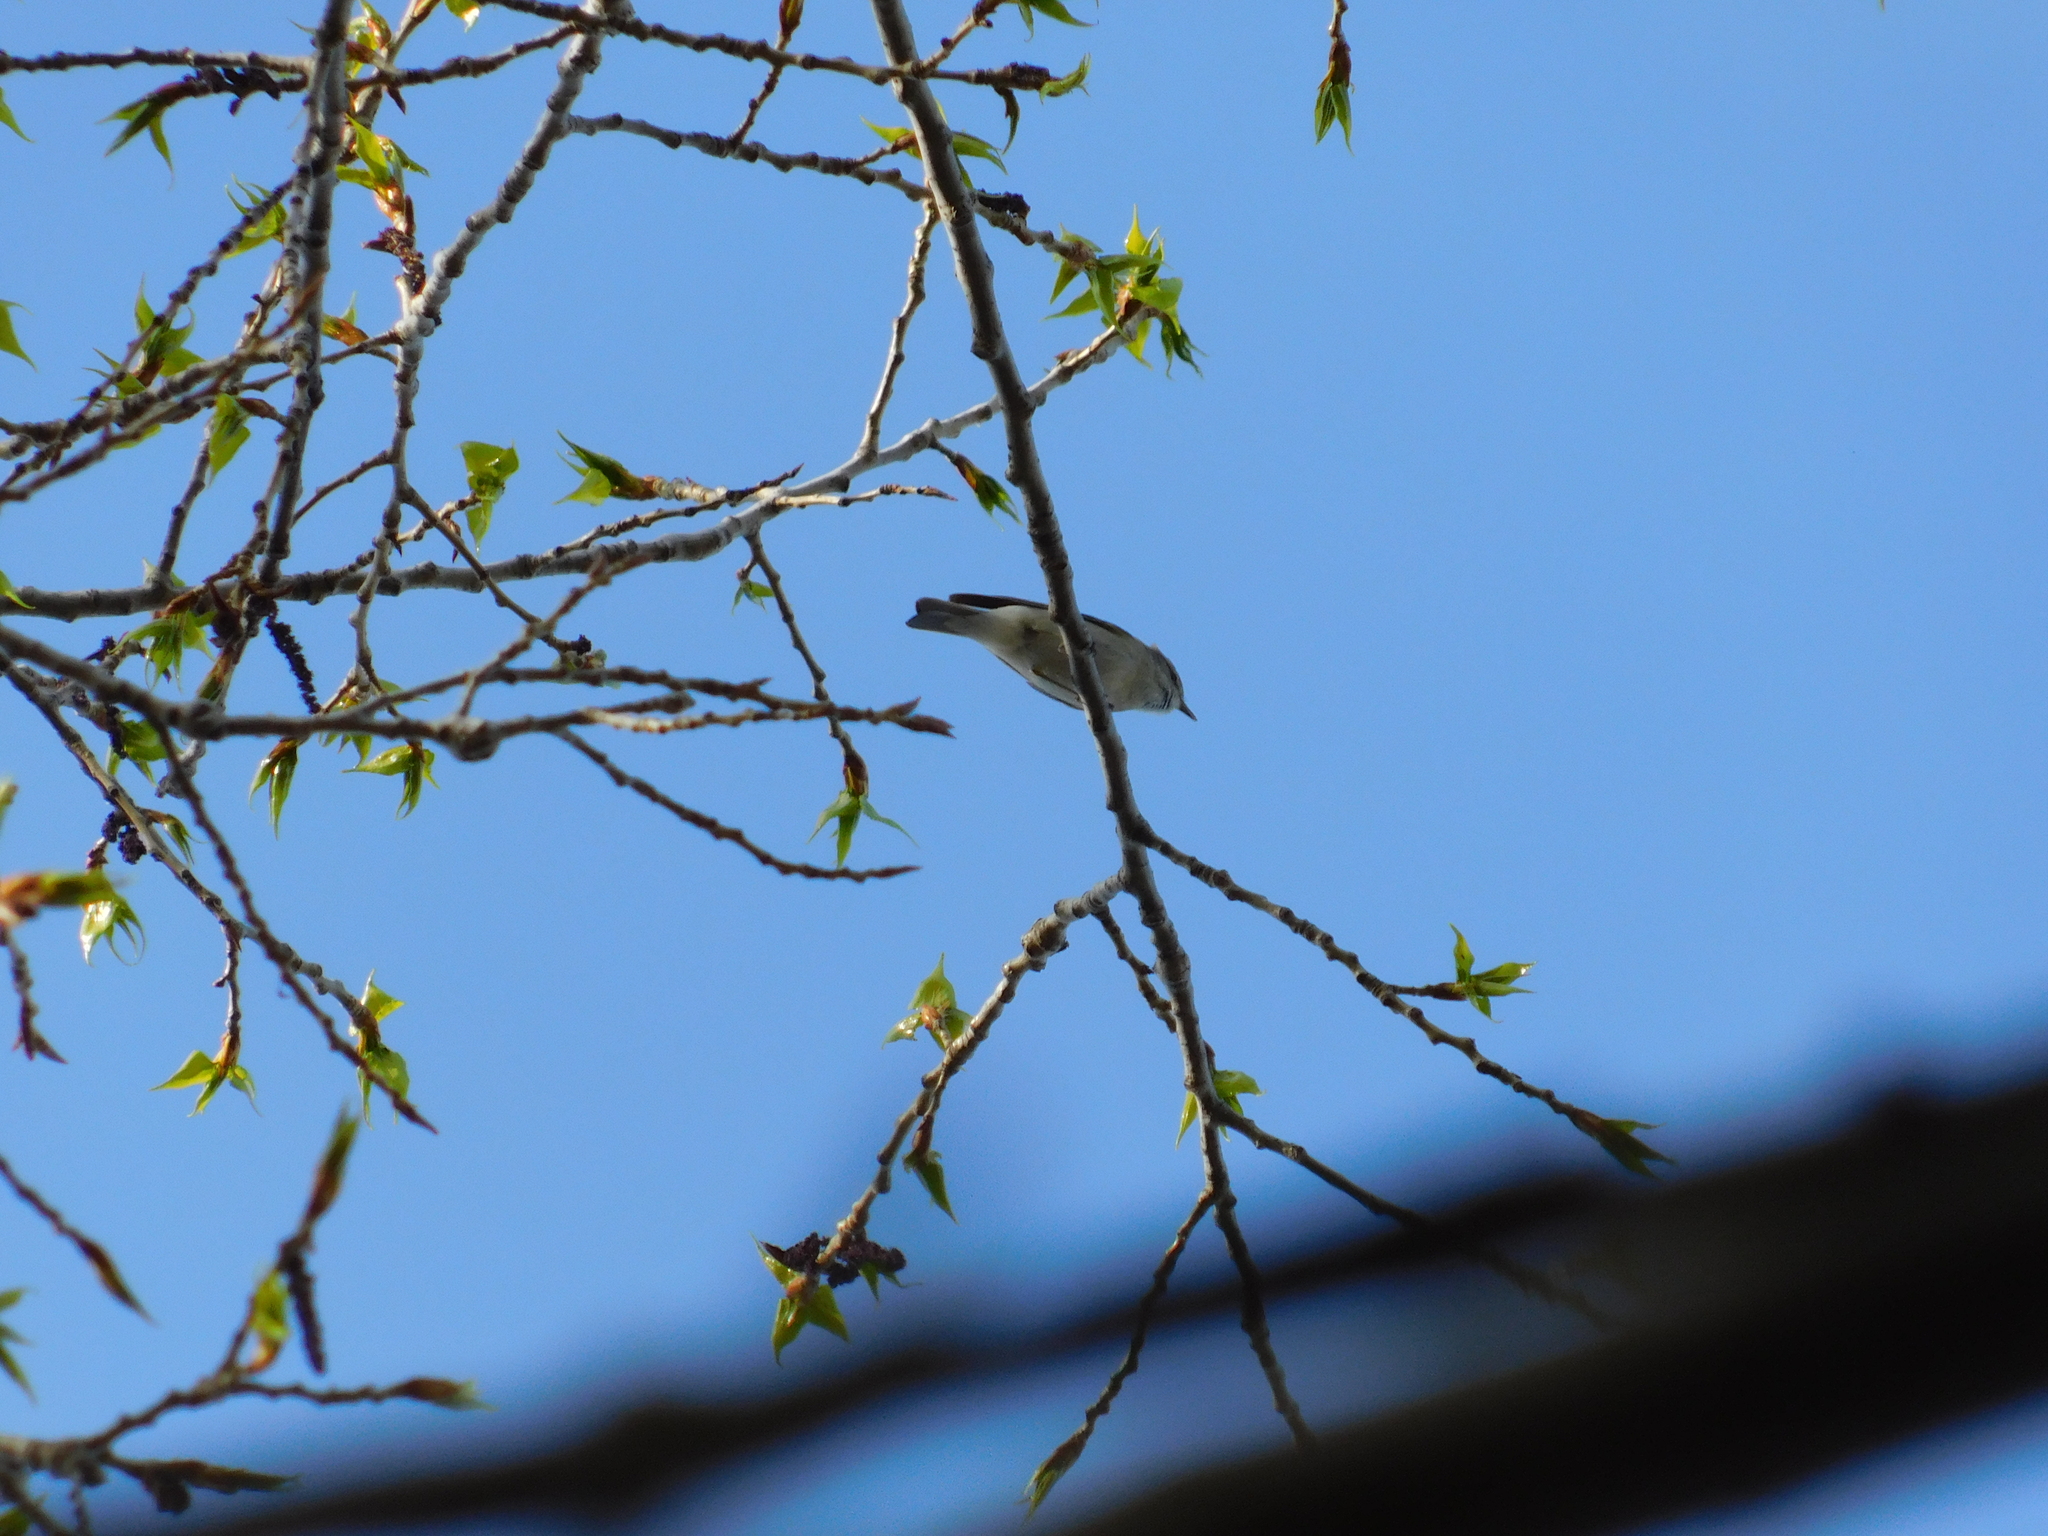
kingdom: Animalia
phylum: Chordata
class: Aves
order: Passeriformes
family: Phylloscopidae
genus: Phylloscopus
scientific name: Phylloscopus trochilus
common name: Willow warbler
